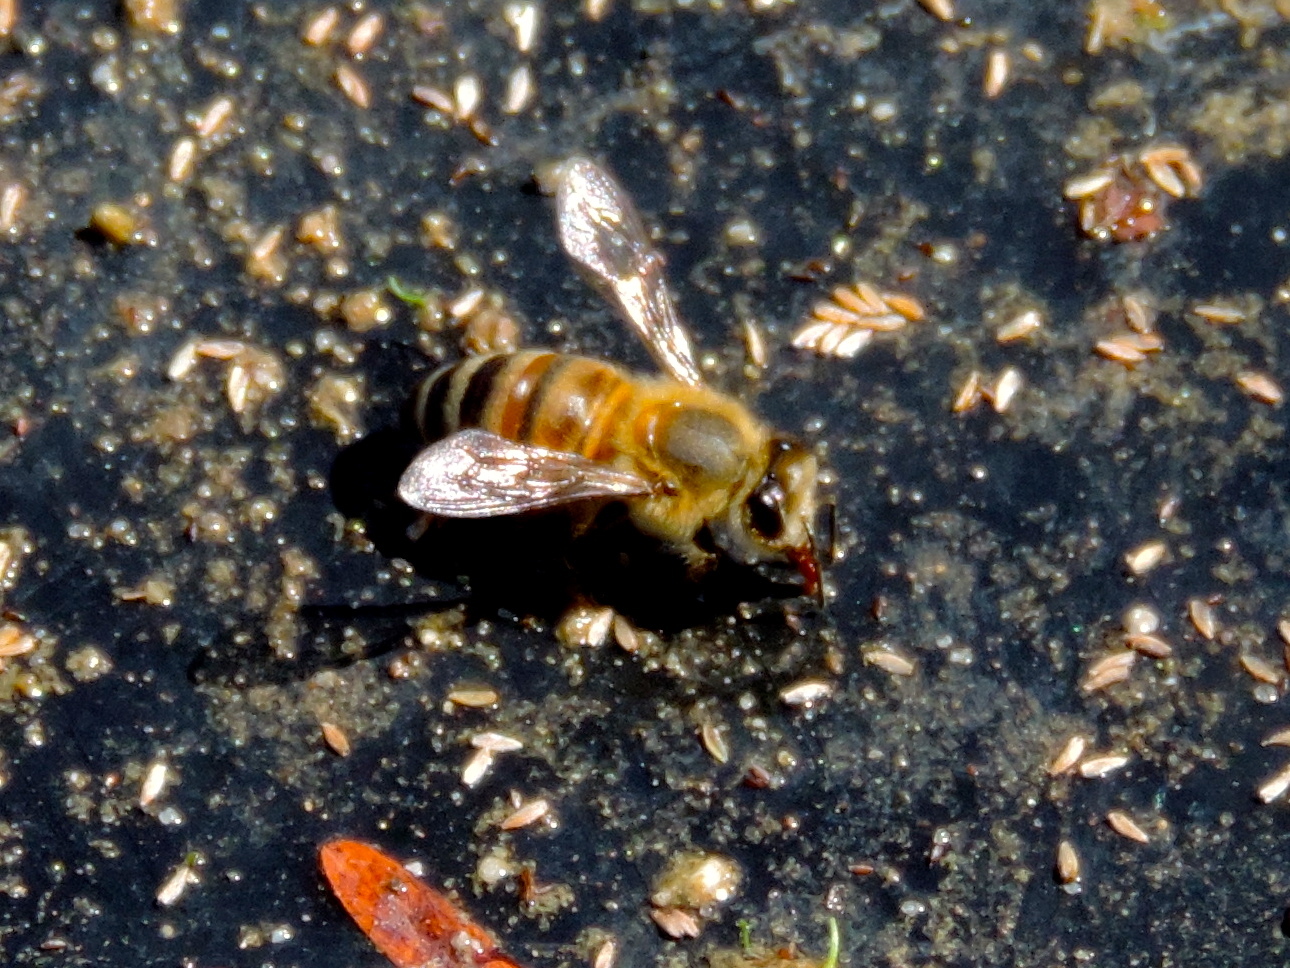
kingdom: Animalia
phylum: Arthropoda
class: Insecta
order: Hymenoptera
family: Apidae
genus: Apis
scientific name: Apis mellifera
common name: Honey bee
